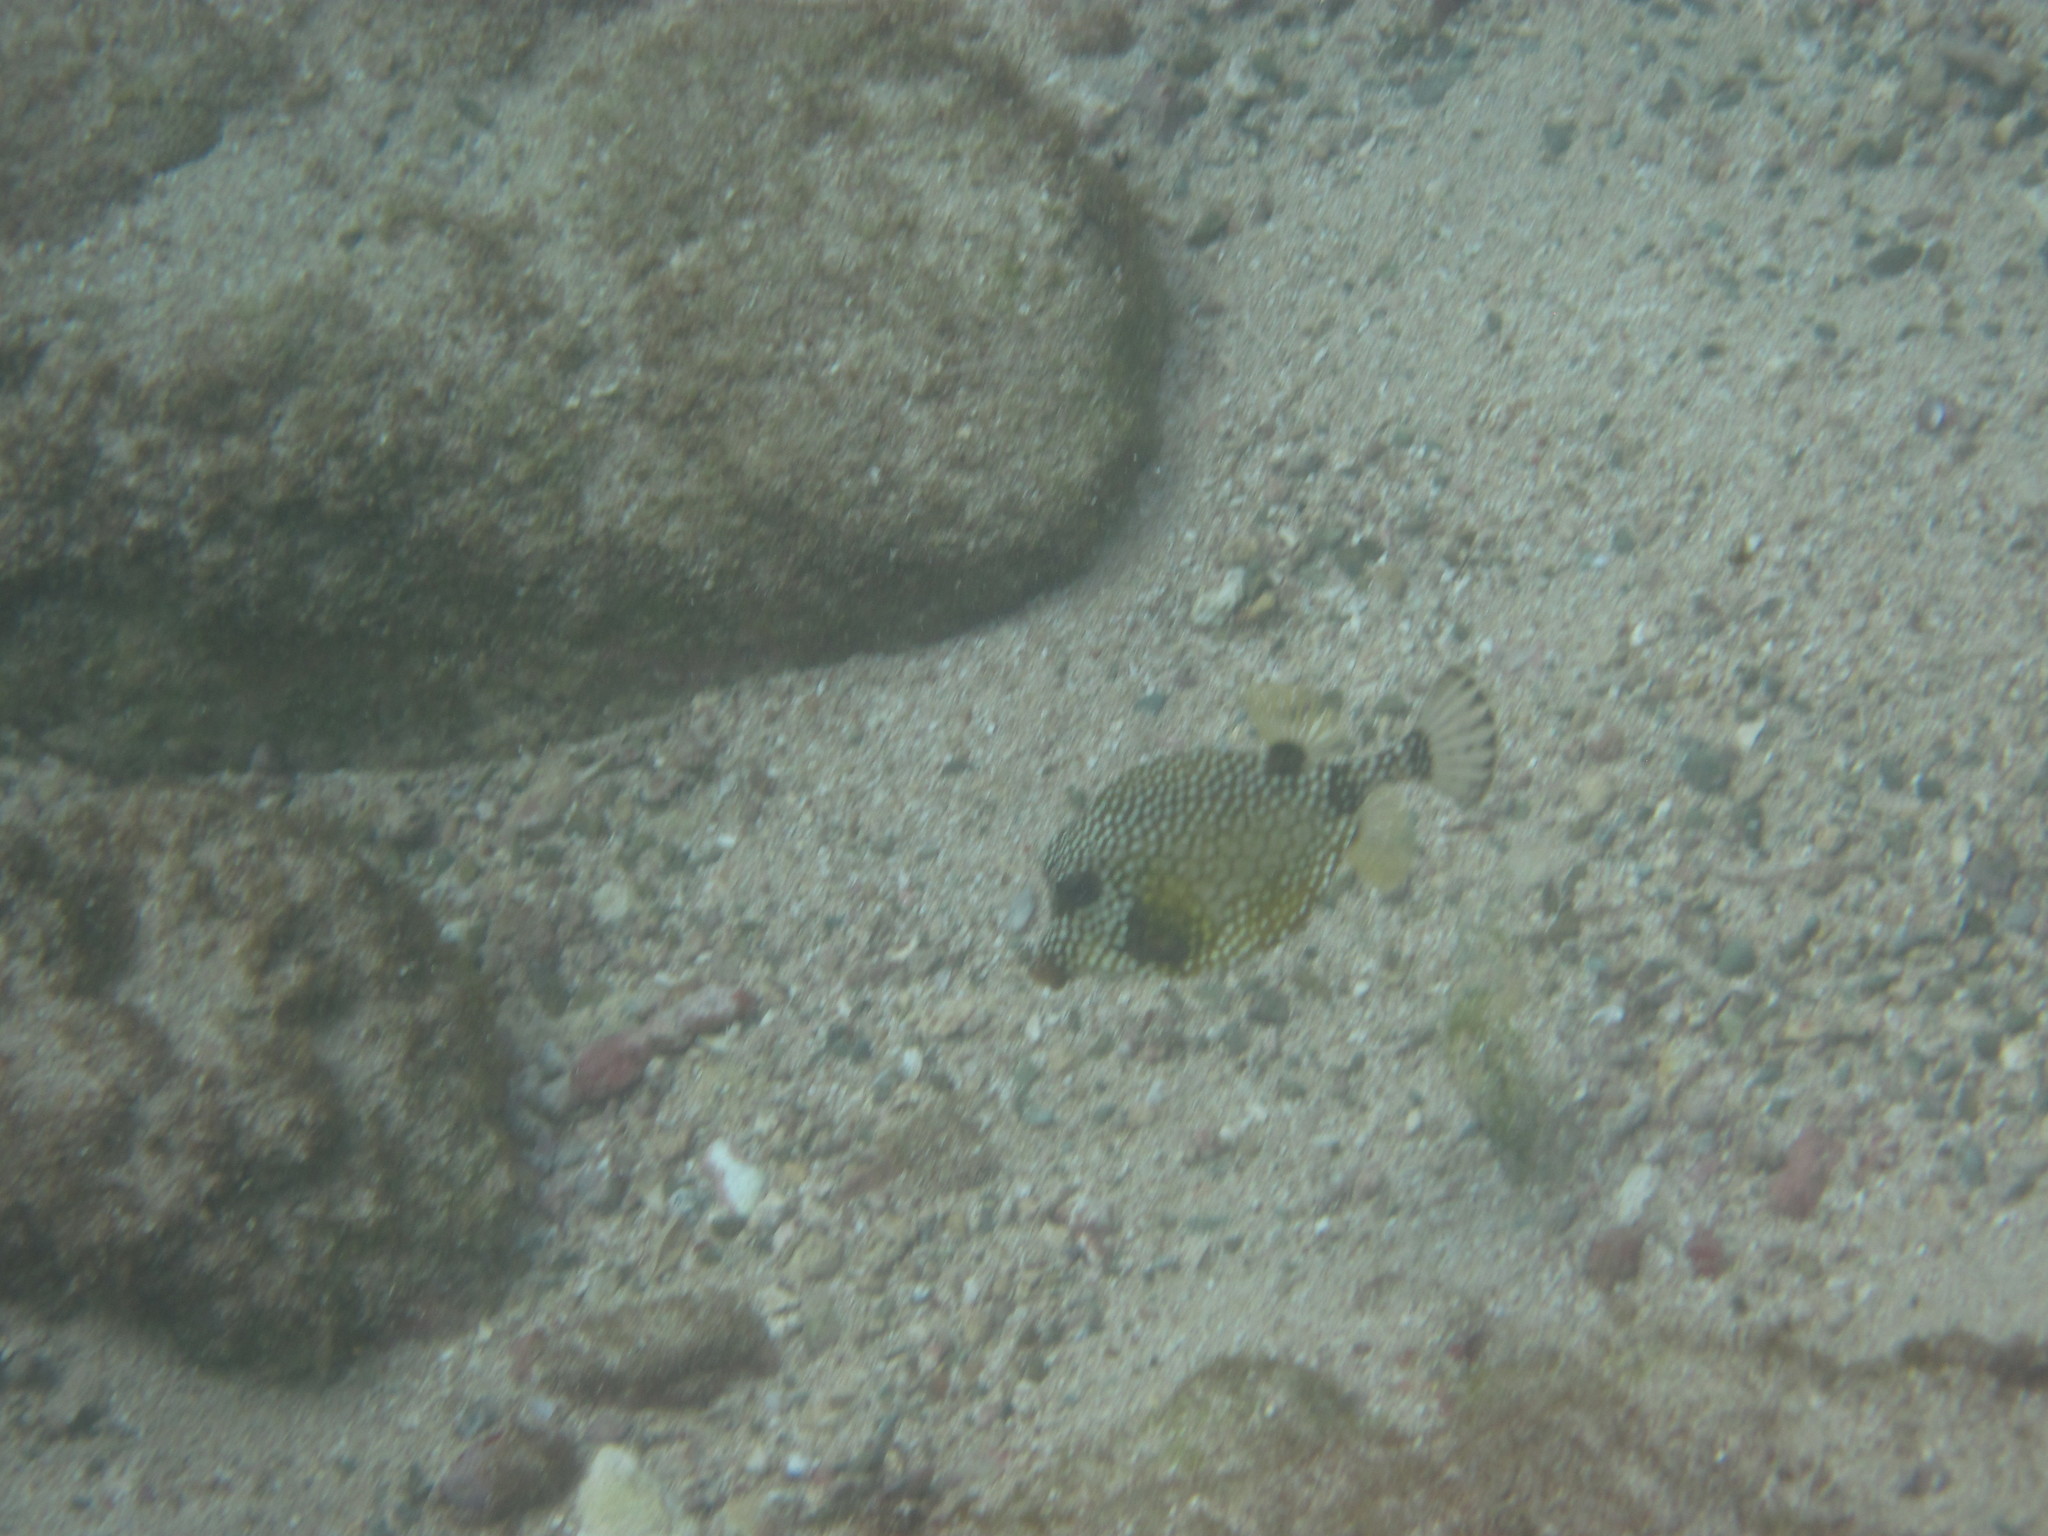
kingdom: Animalia
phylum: Chordata
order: Tetraodontiformes
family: Ostraciidae
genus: Lactophrys
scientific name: Lactophrys triqueter
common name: Smooth trunkfish
